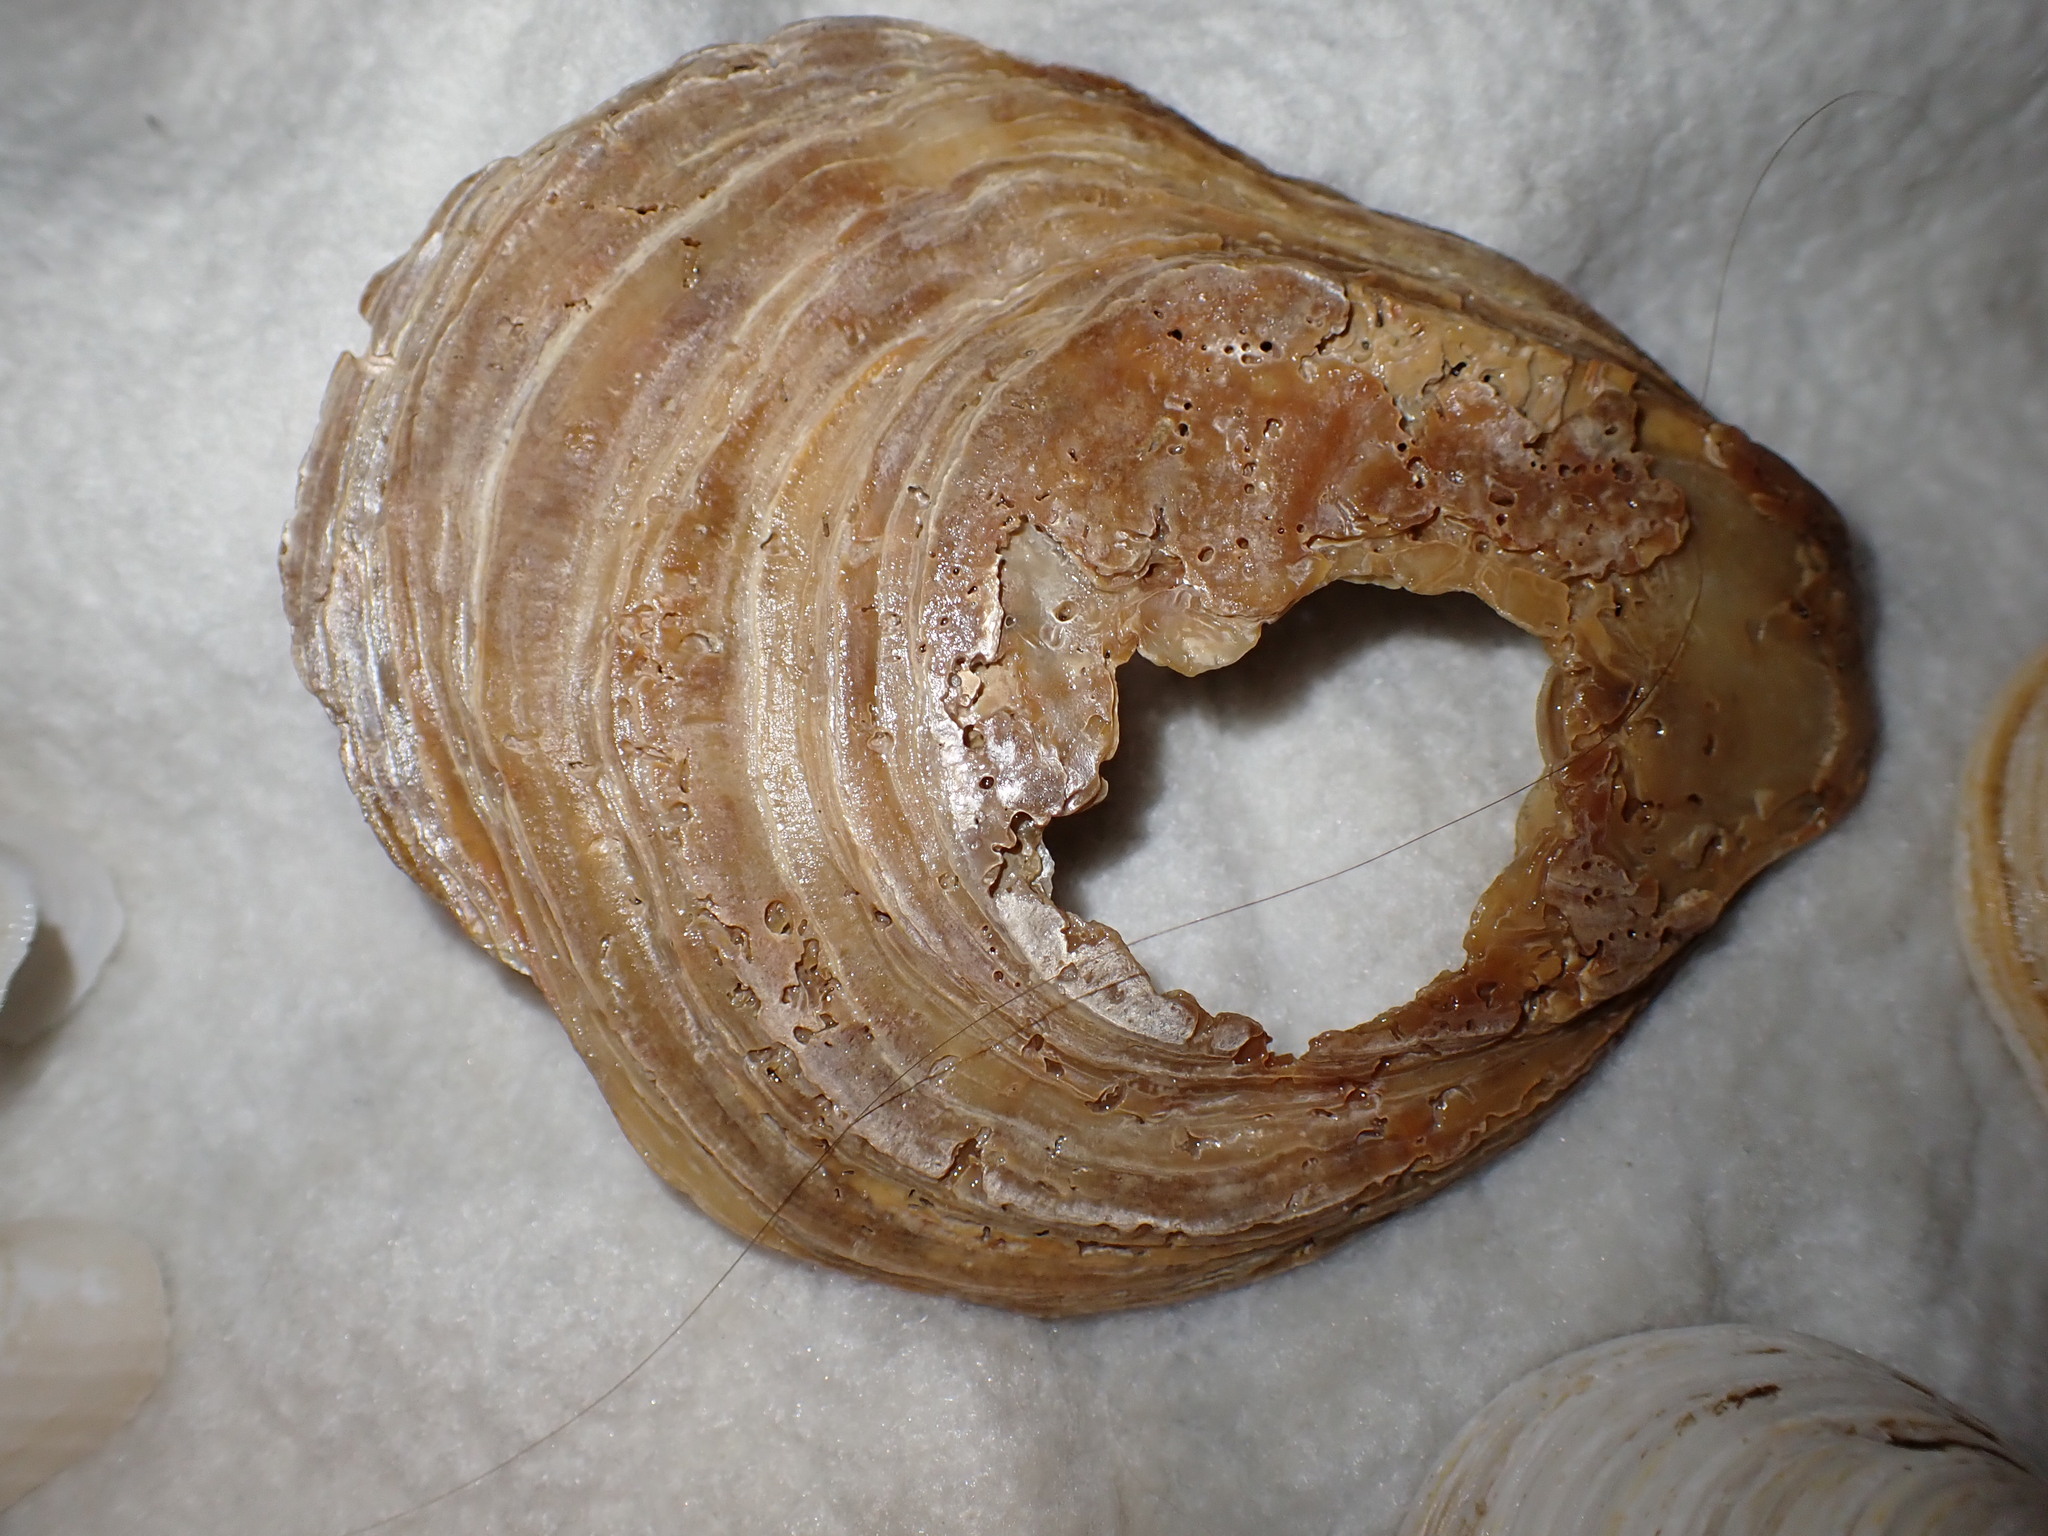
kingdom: Animalia
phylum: Mollusca
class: Bivalvia
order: Ostreida
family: Ostreidae
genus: Ostrea
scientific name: Ostrea edulis
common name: Flat oyster
